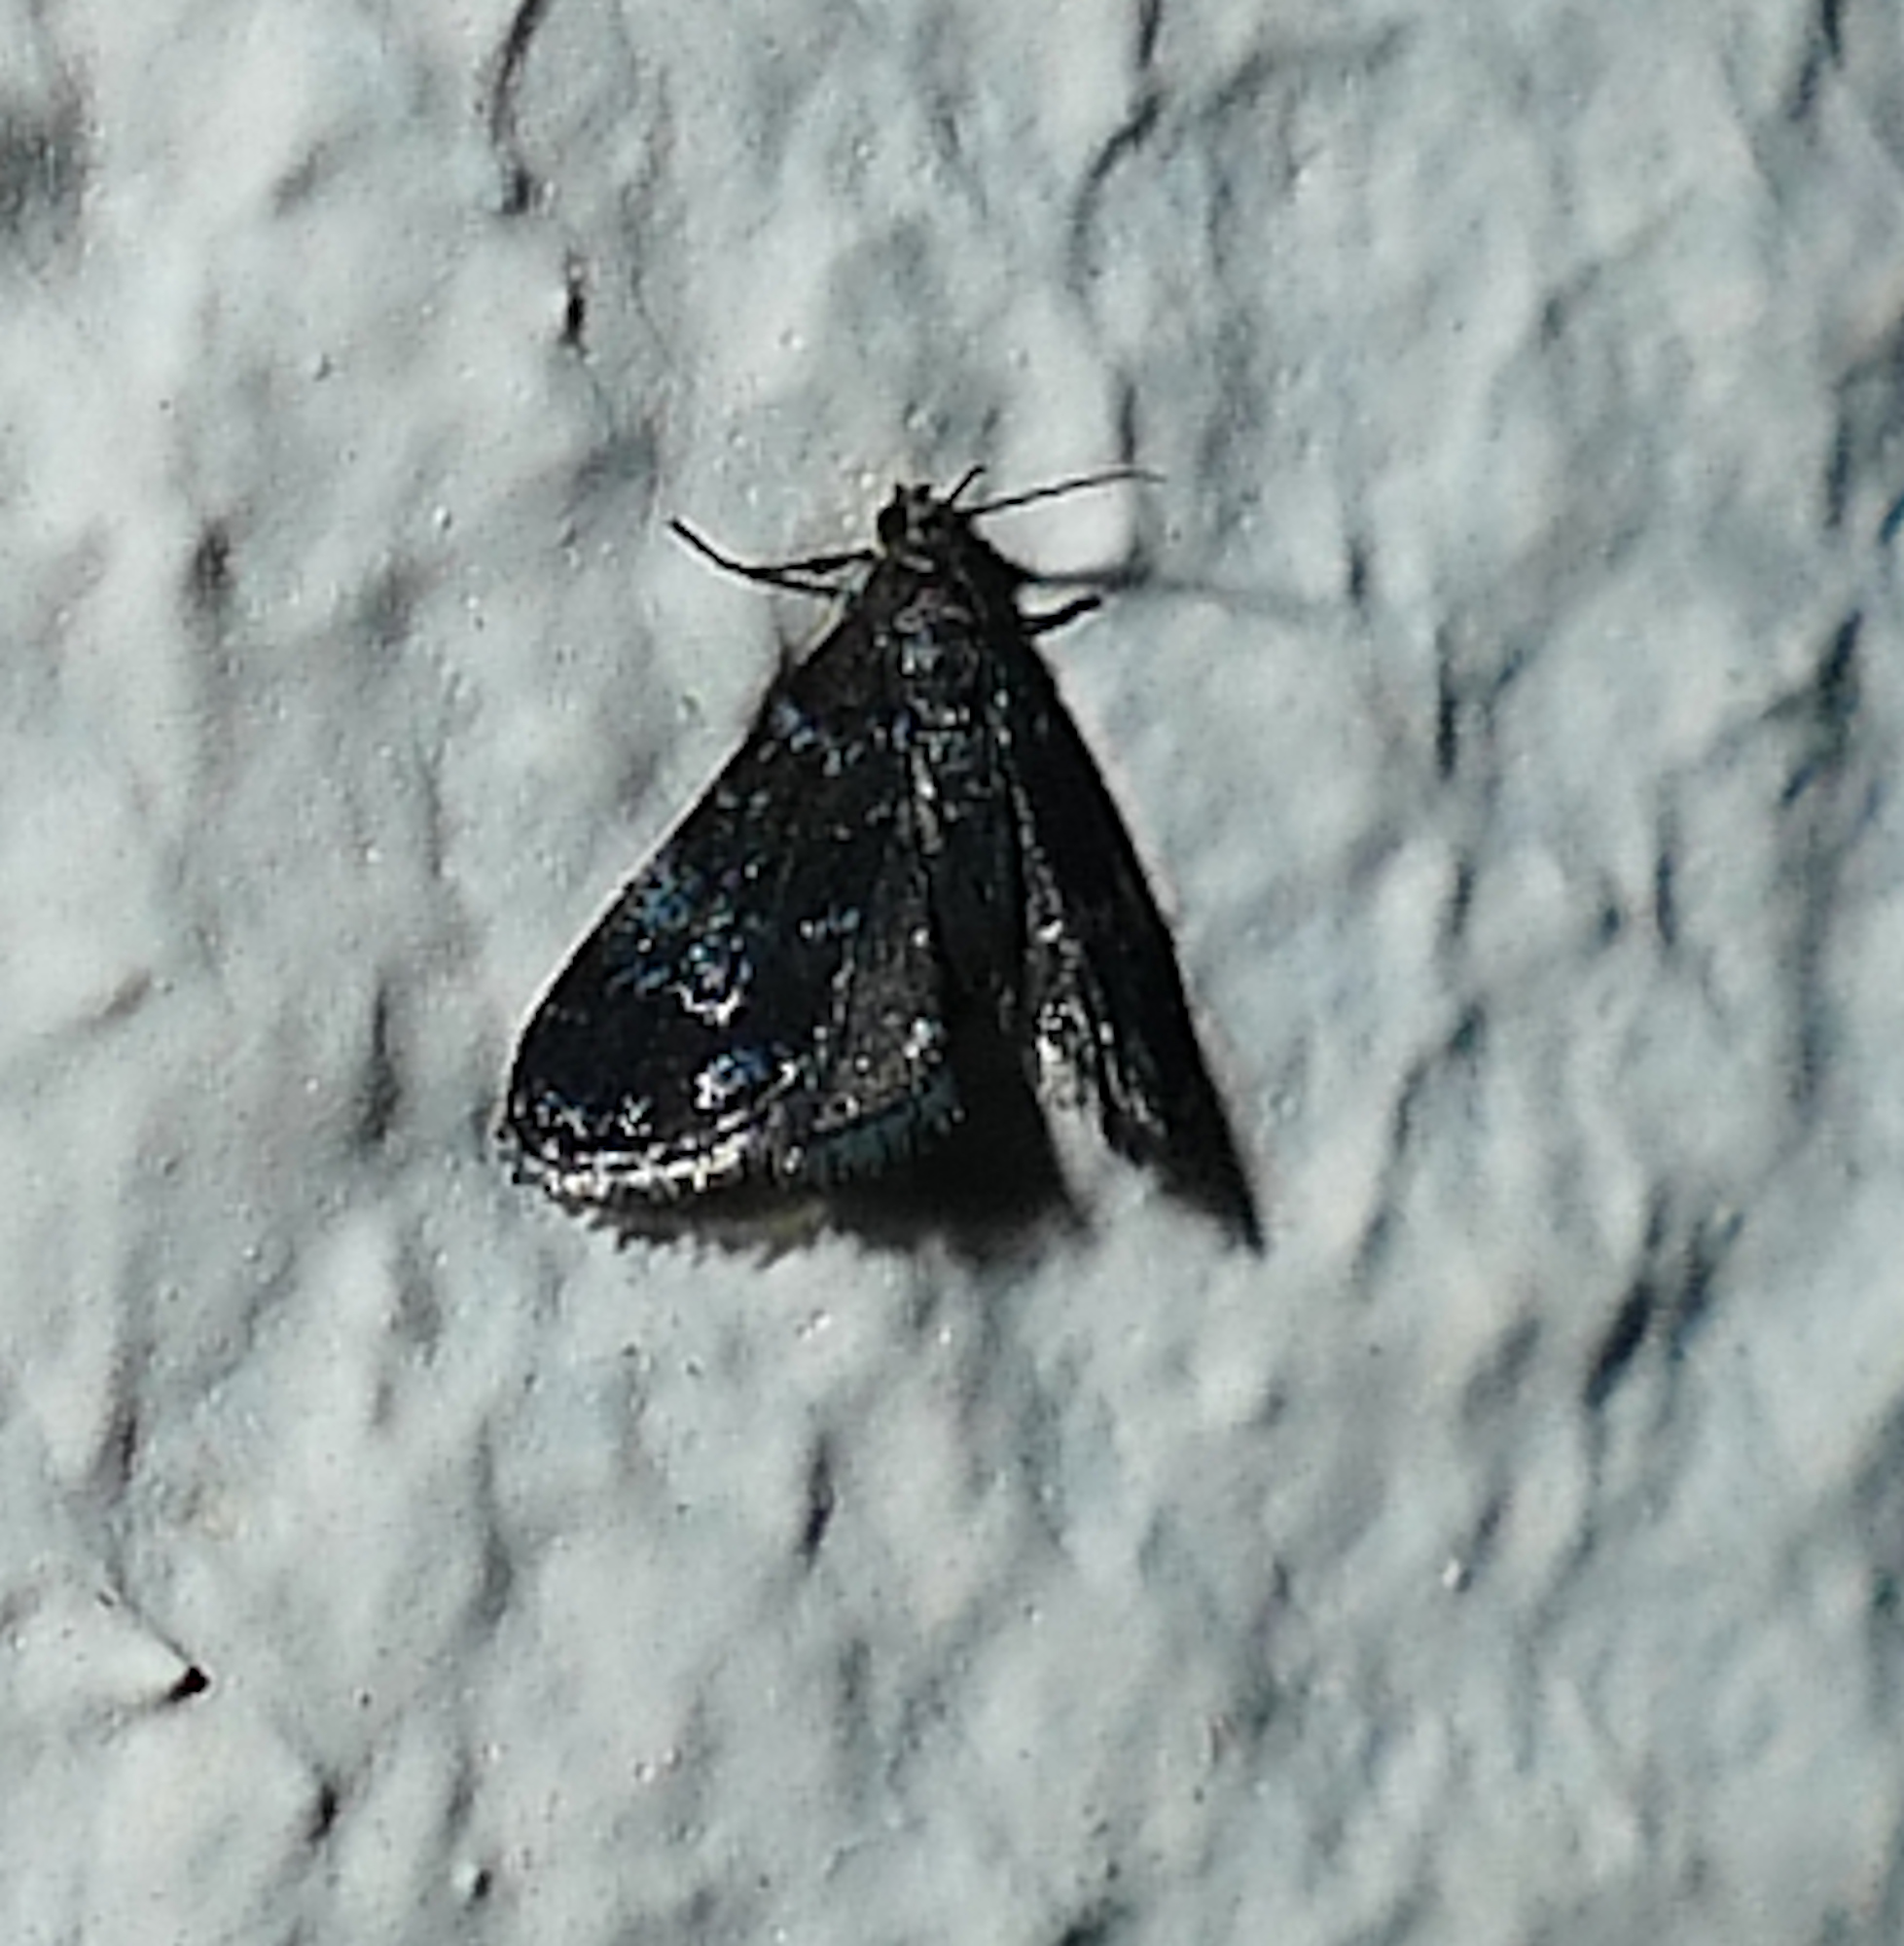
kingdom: Animalia
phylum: Arthropoda
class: Insecta
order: Lepidoptera
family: Crambidae
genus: Elophila
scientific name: Elophila tinealis
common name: Black duckweed moth
